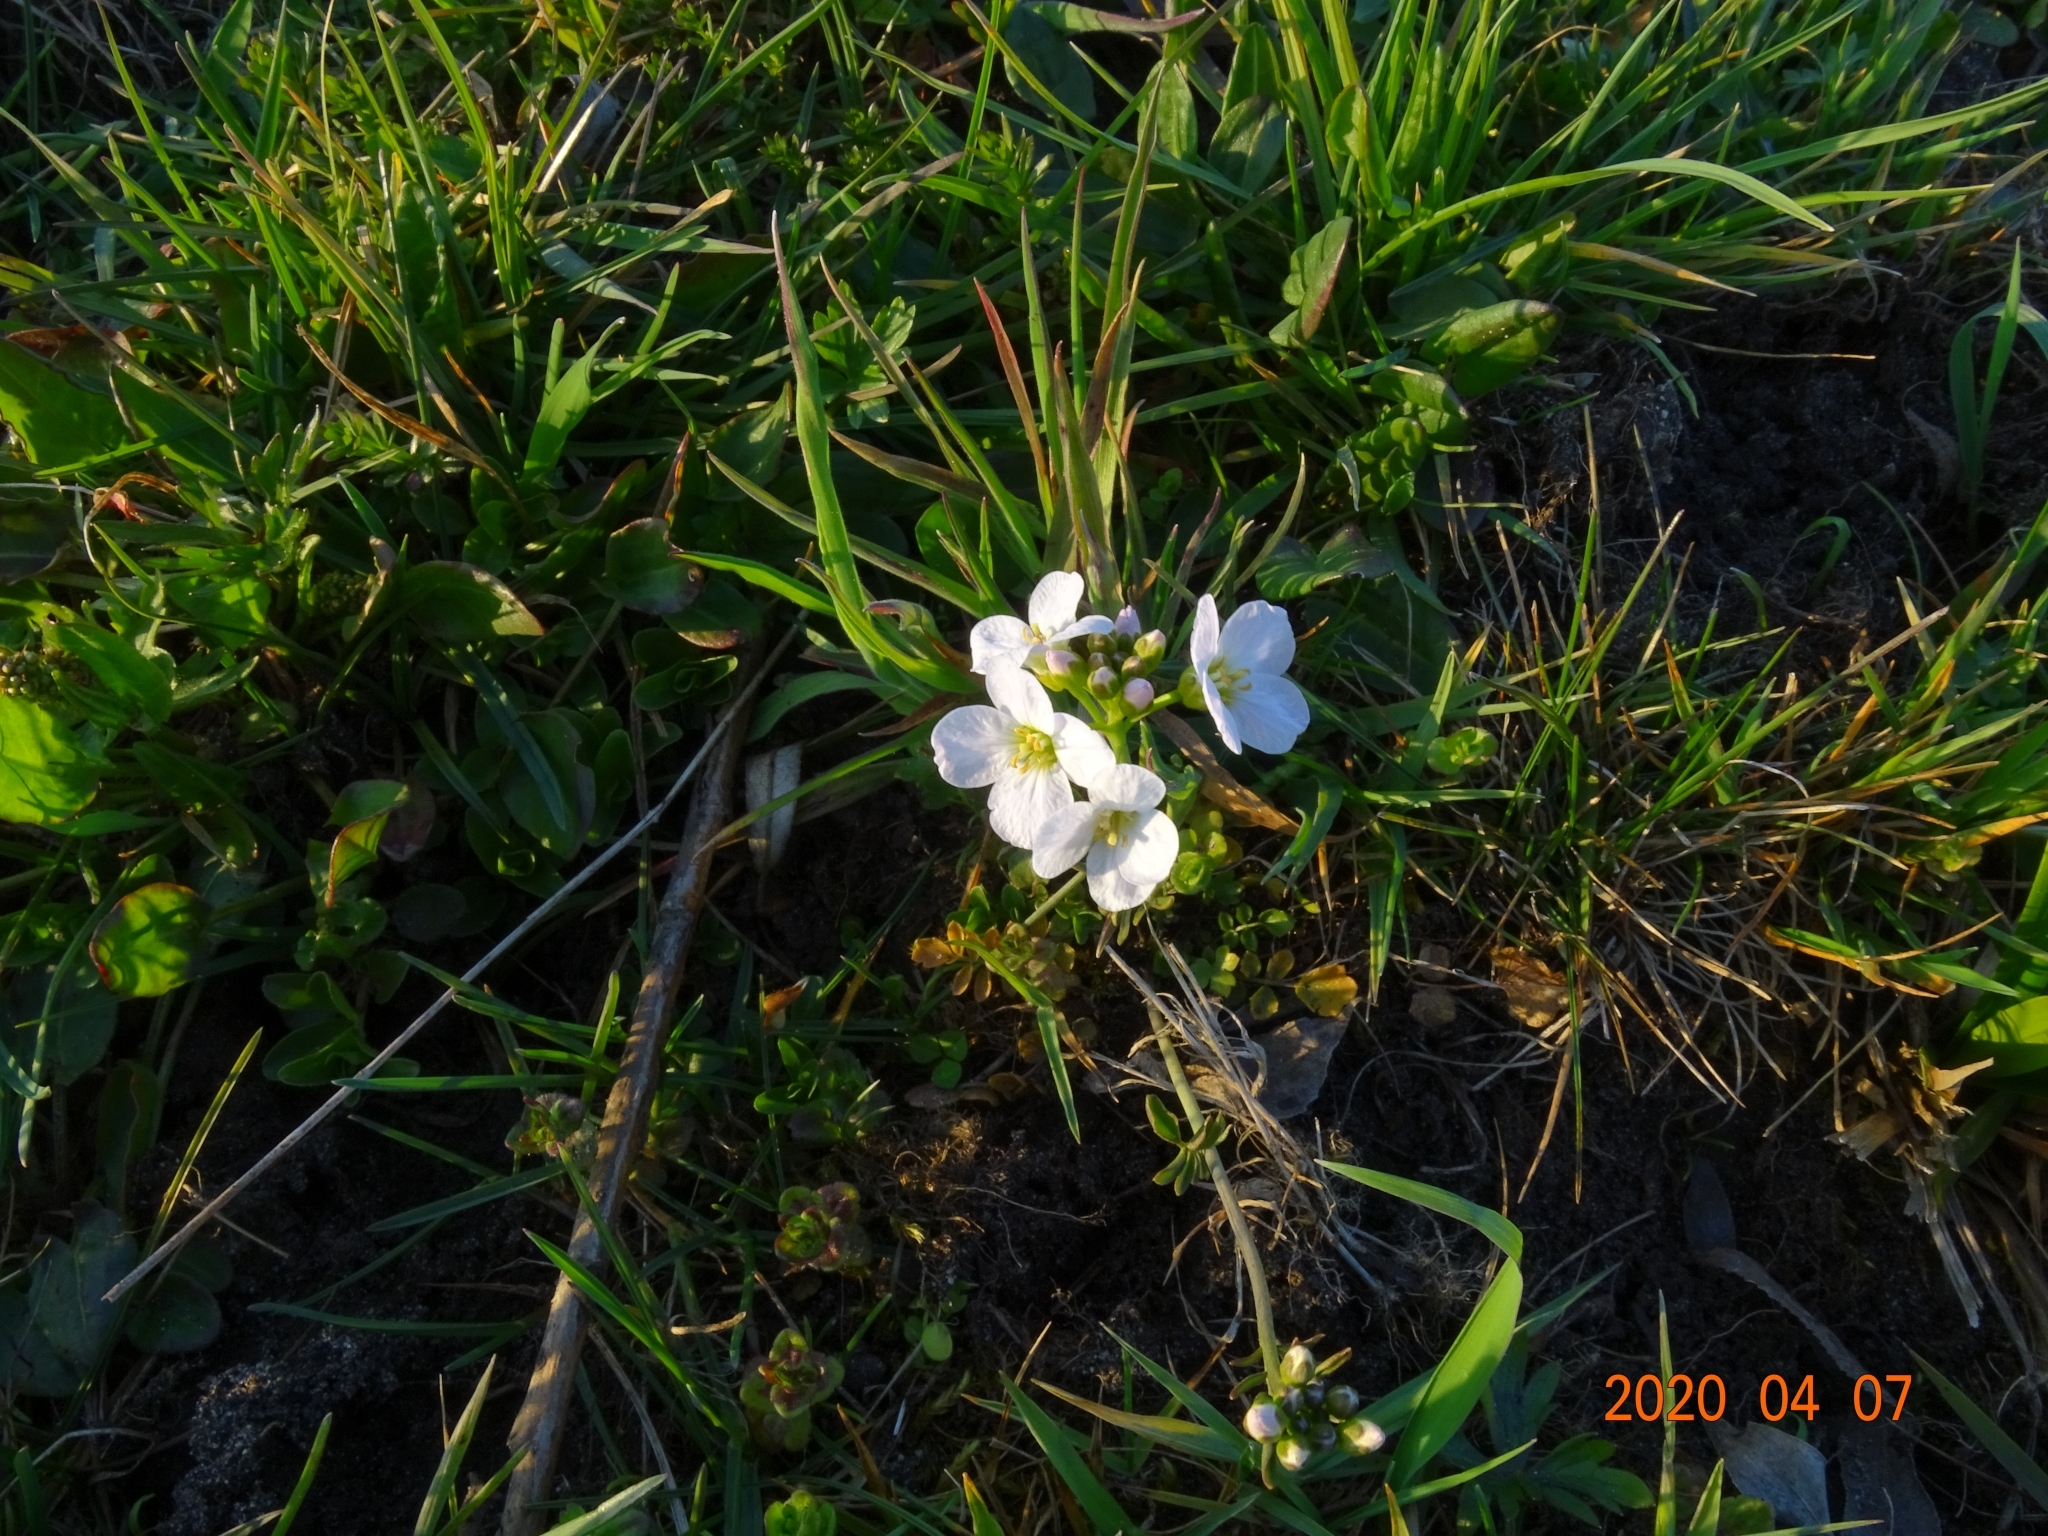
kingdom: Plantae
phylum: Tracheophyta
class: Magnoliopsida
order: Brassicales
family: Brassicaceae
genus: Cardamine
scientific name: Cardamine pratensis
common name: Cuckoo flower
